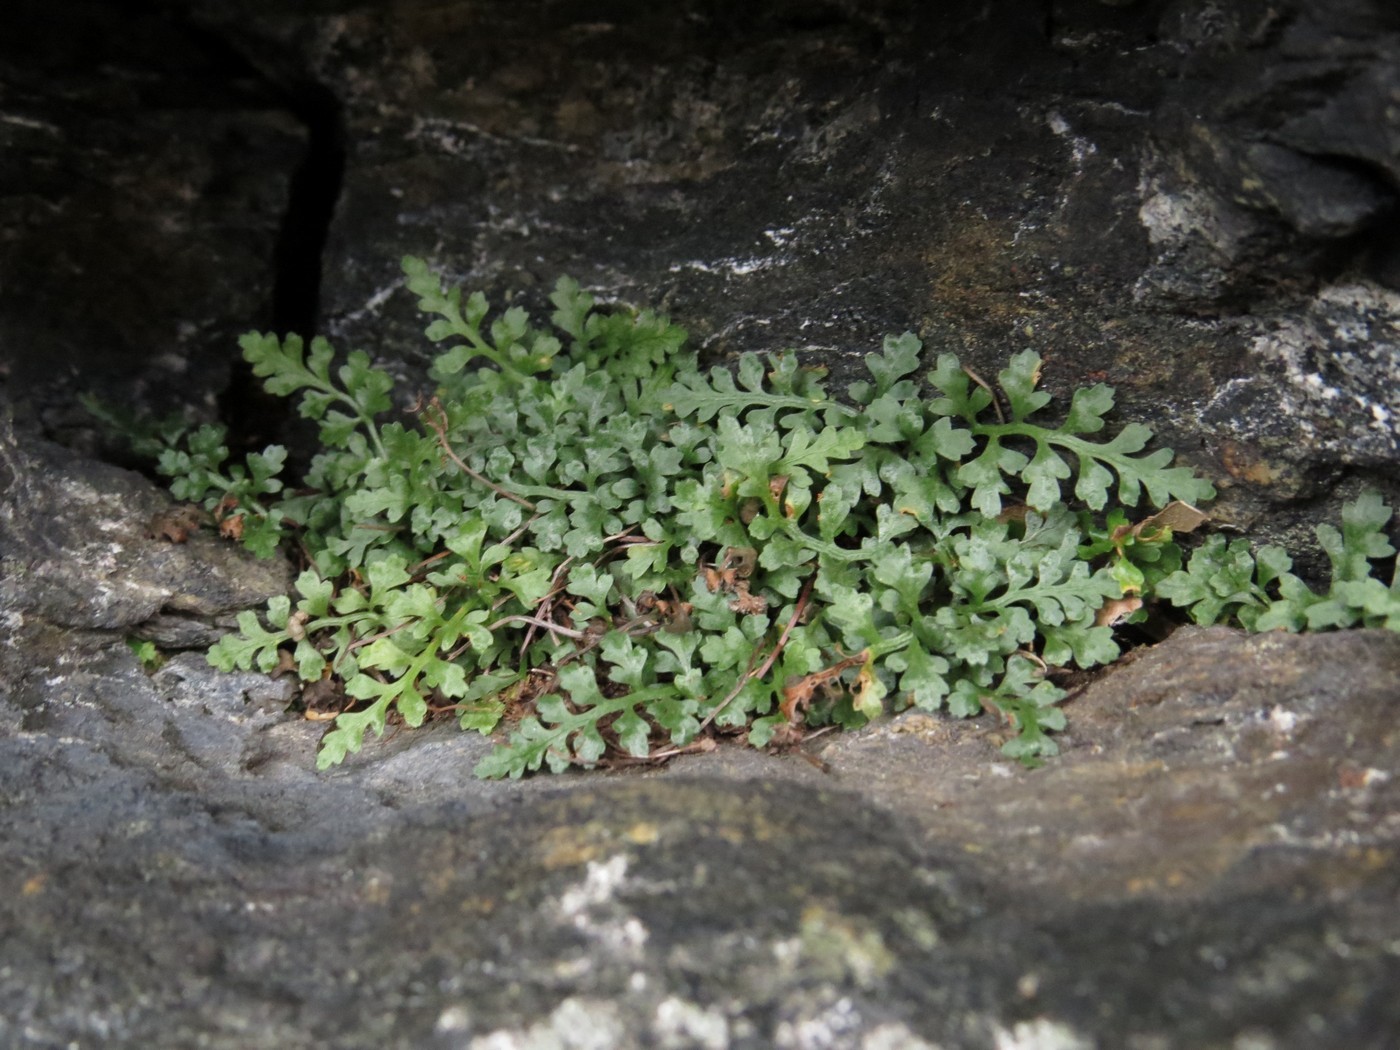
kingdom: Plantae
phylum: Tracheophyta
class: Polypodiopsida
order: Polypodiales
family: Aspleniaceae
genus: Asplenium
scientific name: Asplenium montanum
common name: Mountain spleenwort
